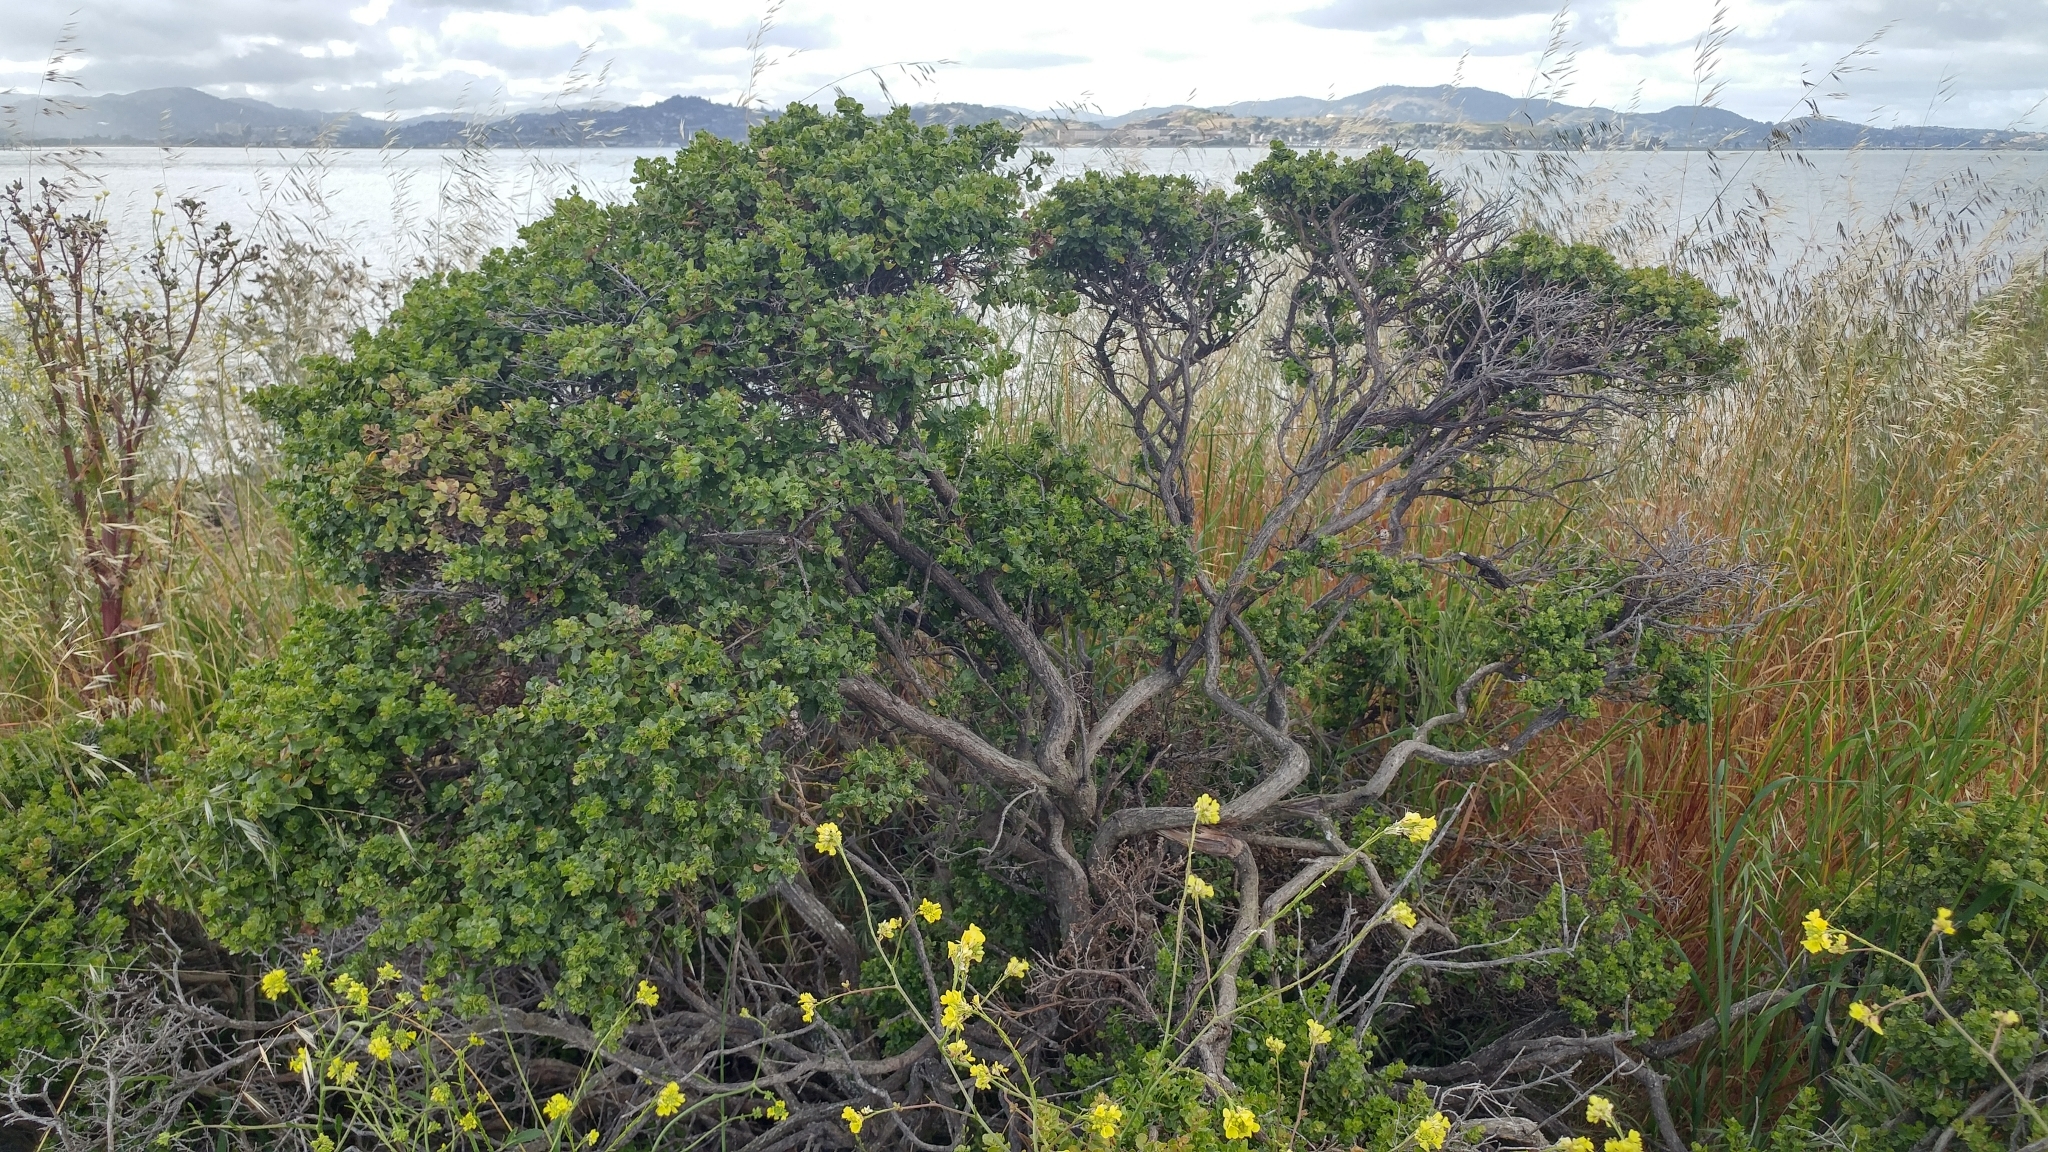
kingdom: Plantae
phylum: Tracheophyta
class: Magnoliopsida
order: Asterales
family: Asteraceae
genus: Baccharis
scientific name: Baccharis pilularis
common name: Coyotebrush
